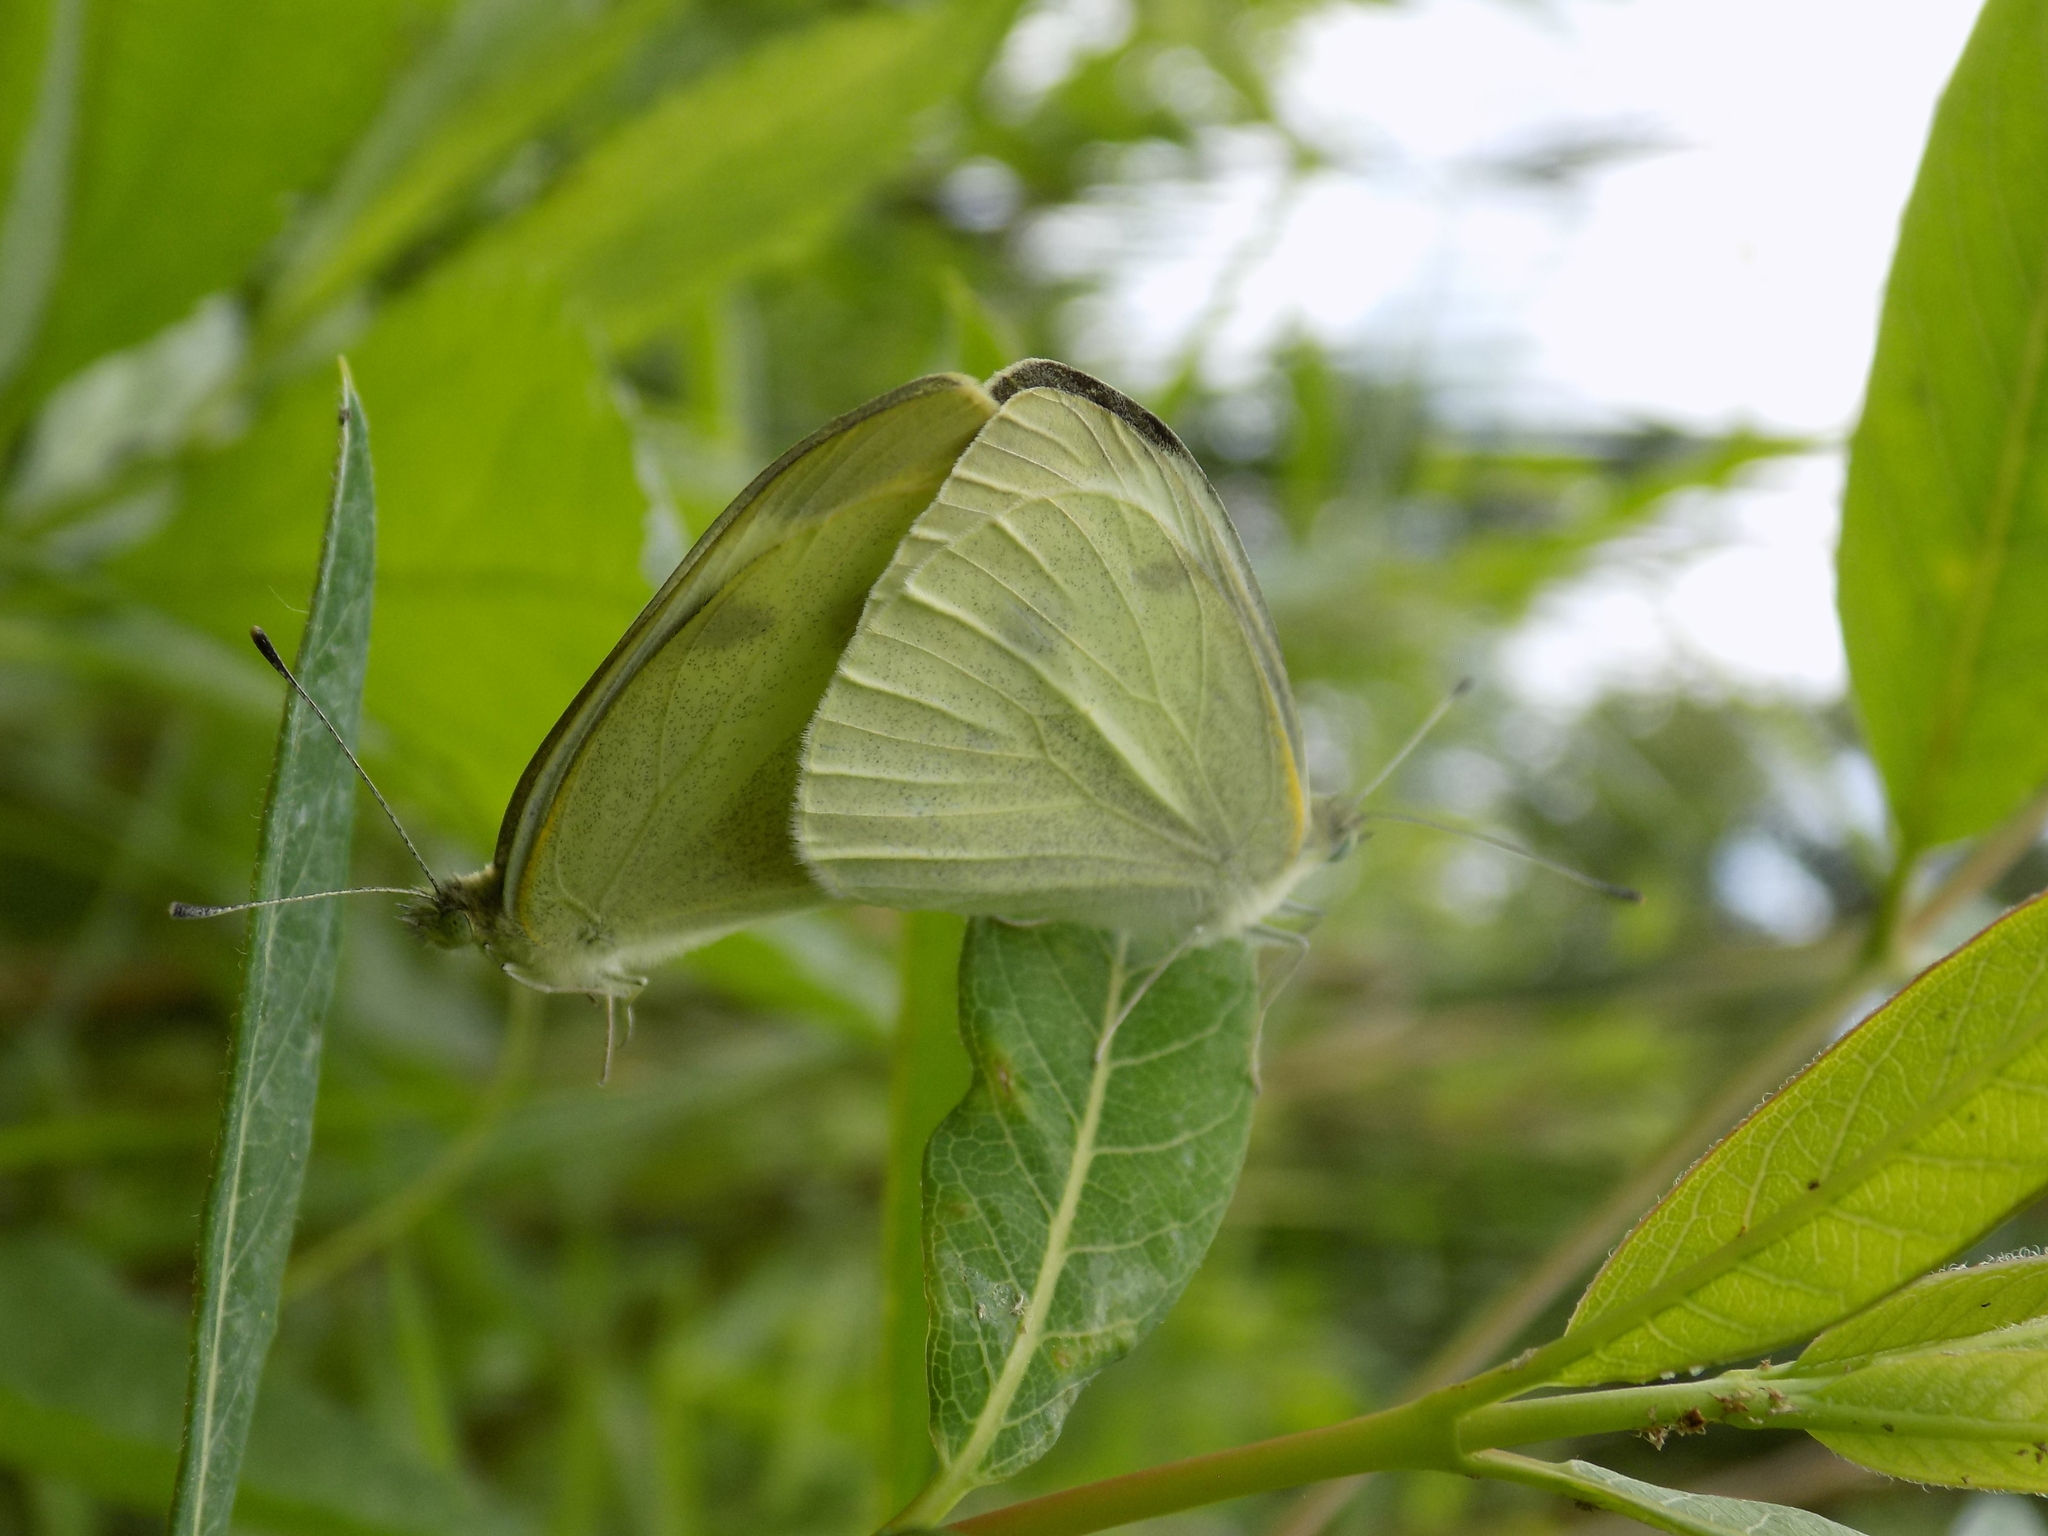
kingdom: Animalia
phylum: Arthropoda
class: Insecta
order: Lepidoptera
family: Pieridae
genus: Pieris
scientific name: Pieris rapae
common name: Small white
